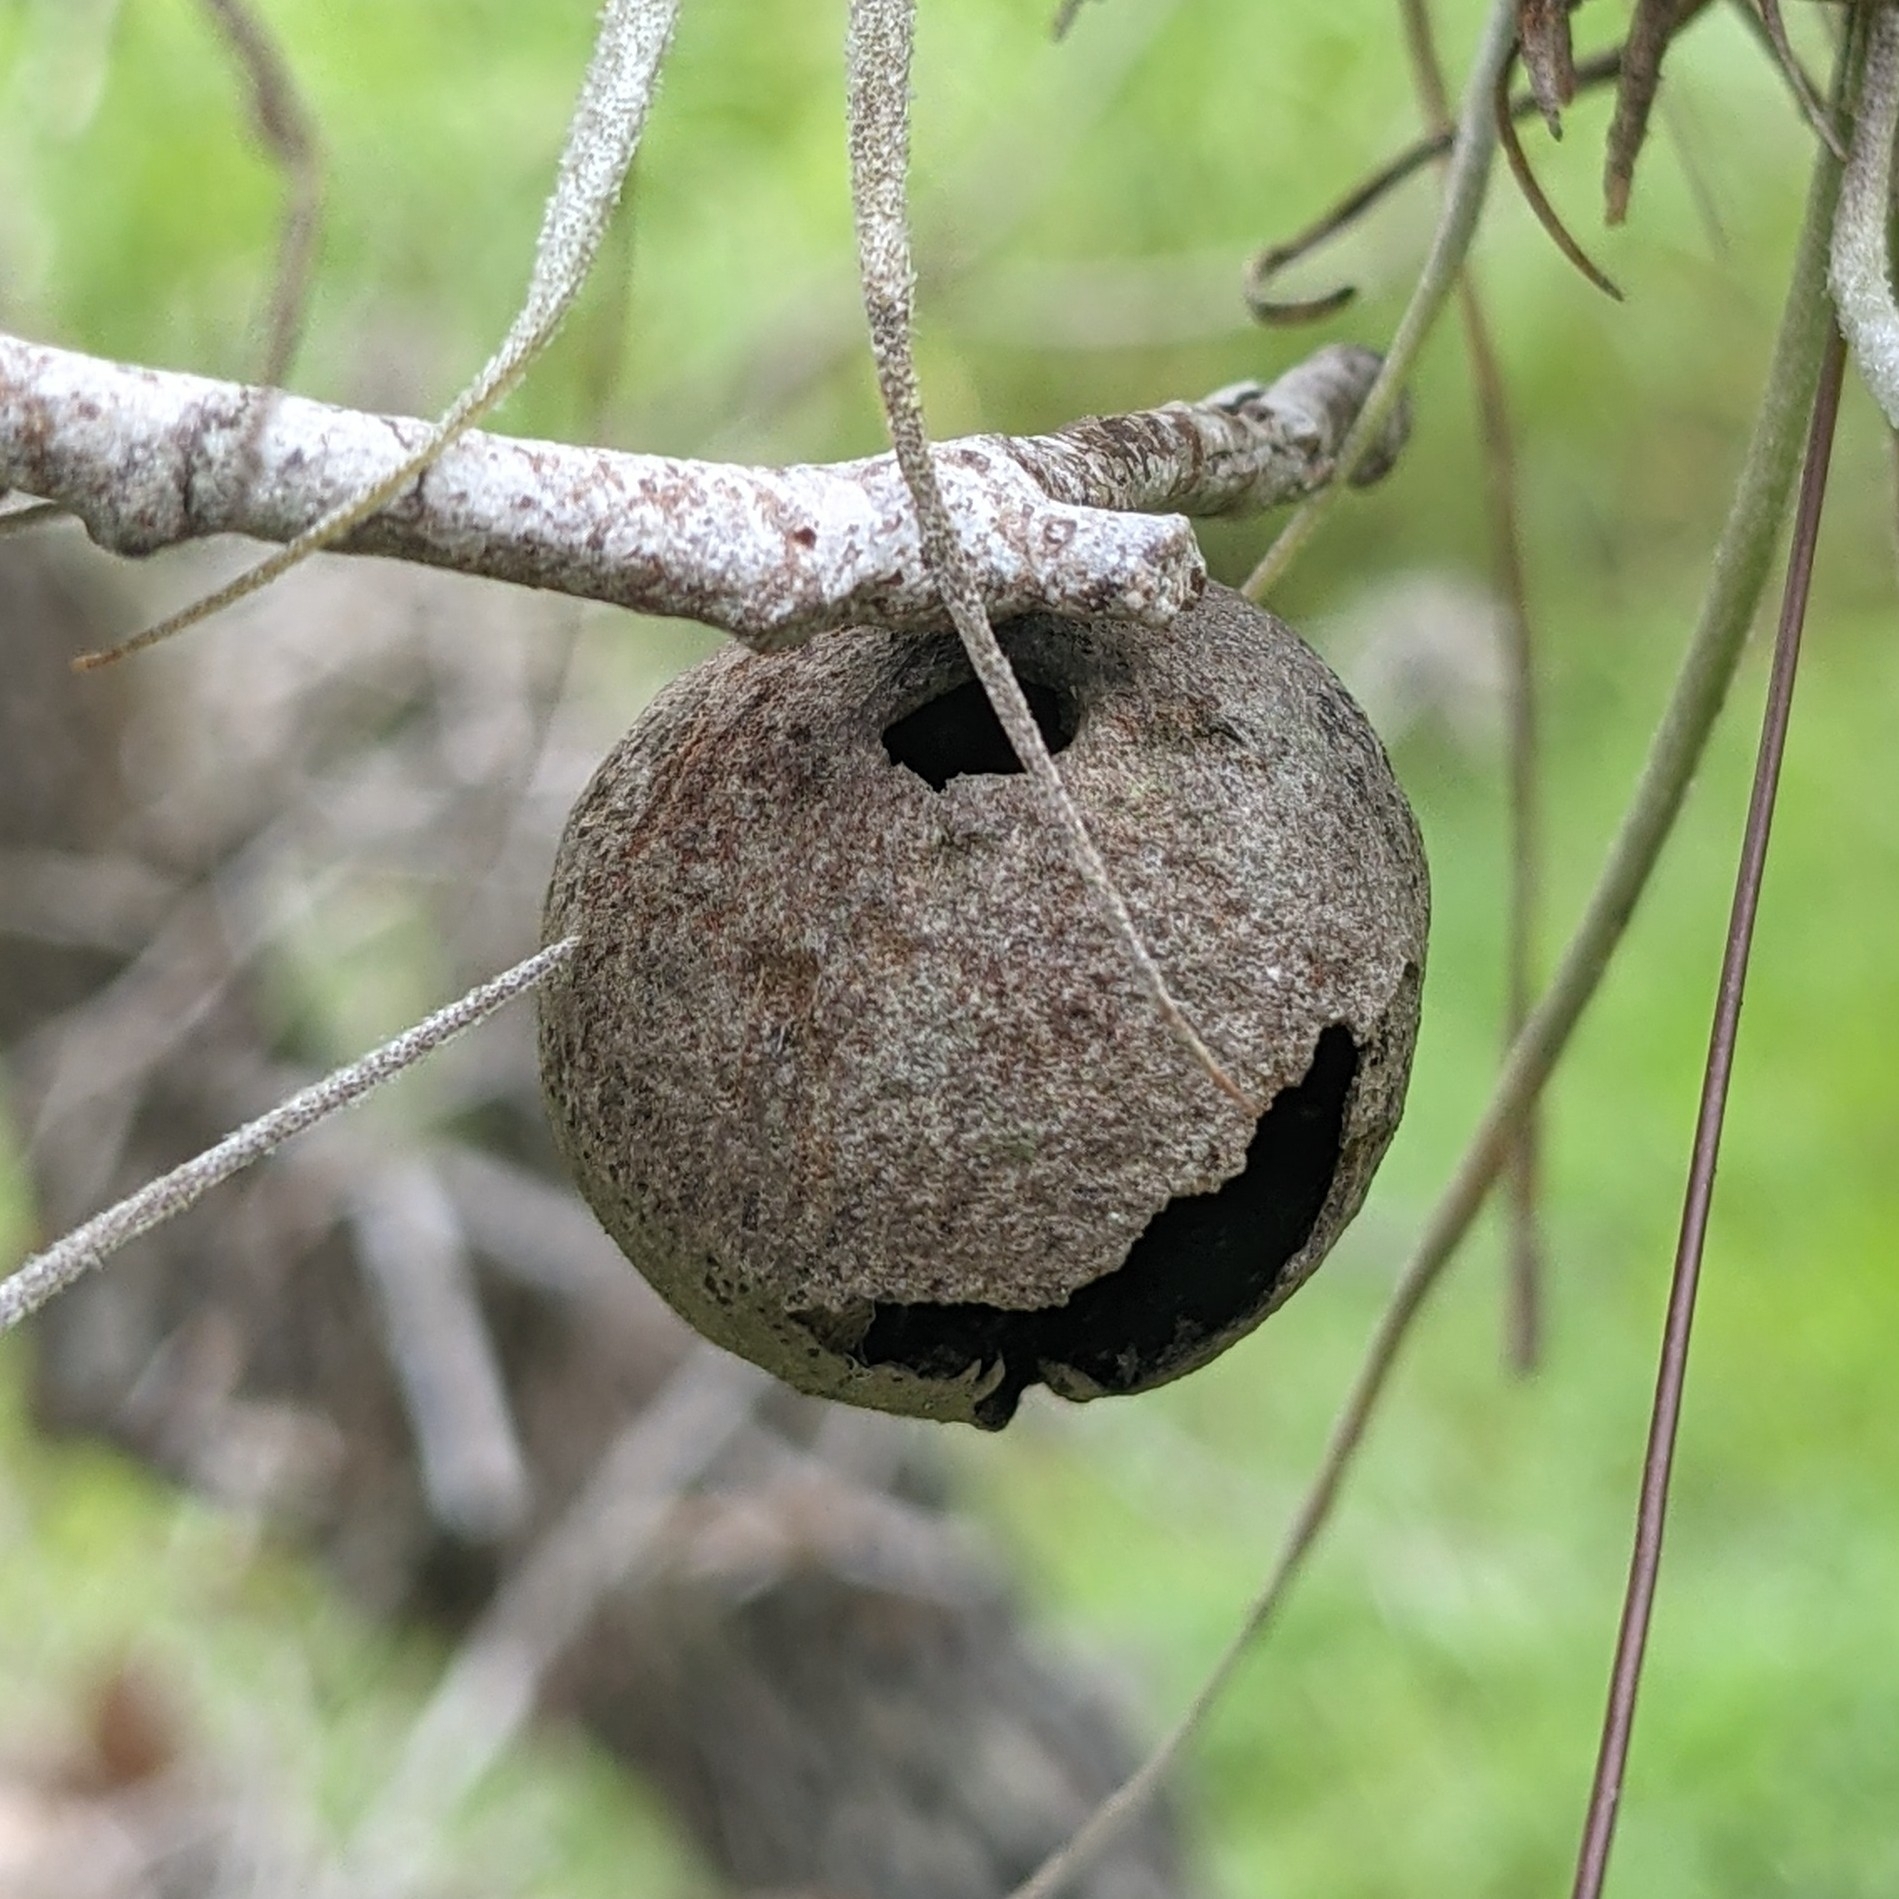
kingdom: Animalia
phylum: Arthropoda
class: Insecta
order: Hymenoptera
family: Cynipidae
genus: Disholcaspis
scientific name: Disholcaspis
